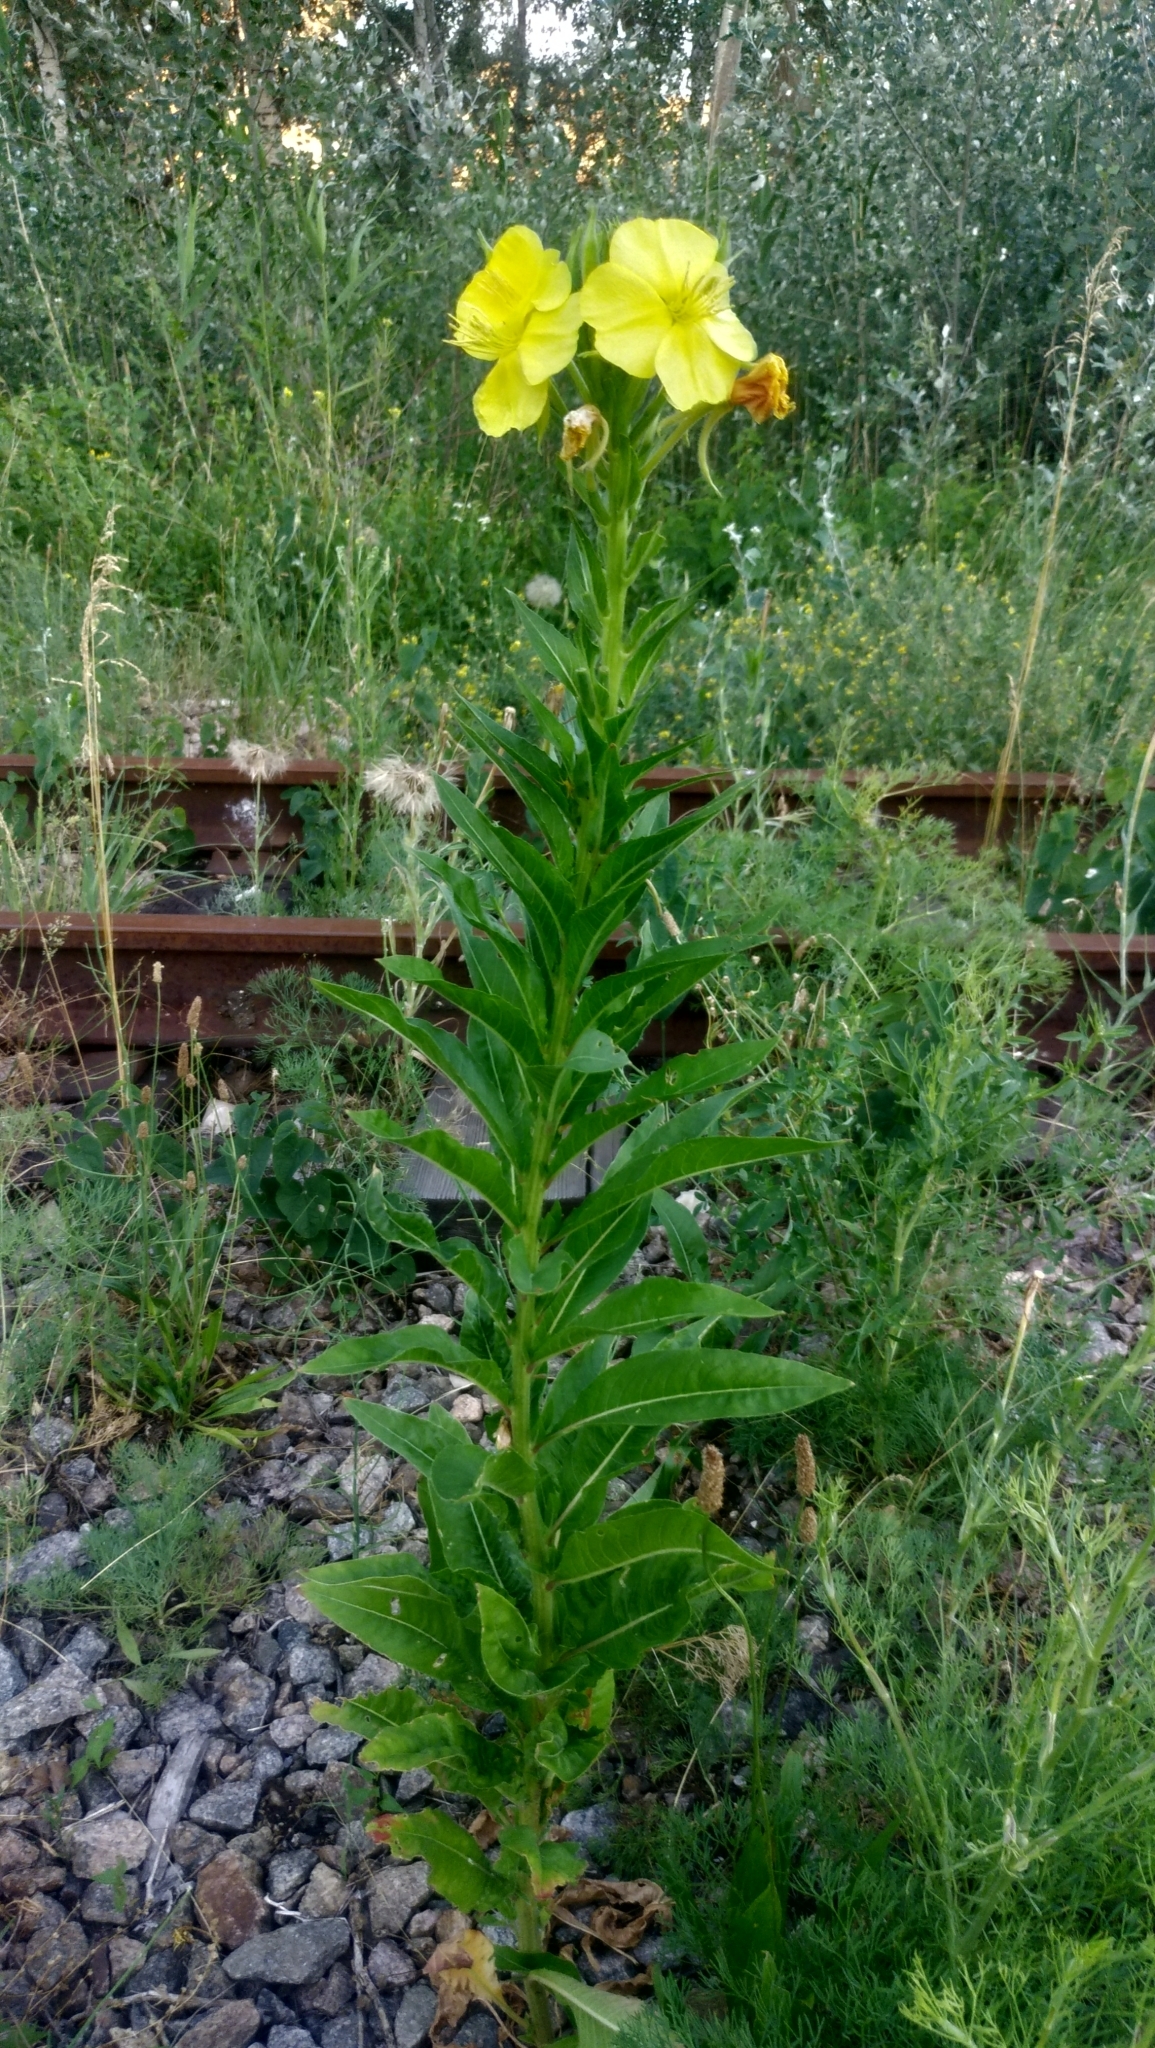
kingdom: Plantae
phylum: Tracheophyta
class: Magnoliopsida
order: Myrtales
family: Onagraceae
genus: Oenothera
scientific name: Oenothera biennis
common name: Common evening-primrose
